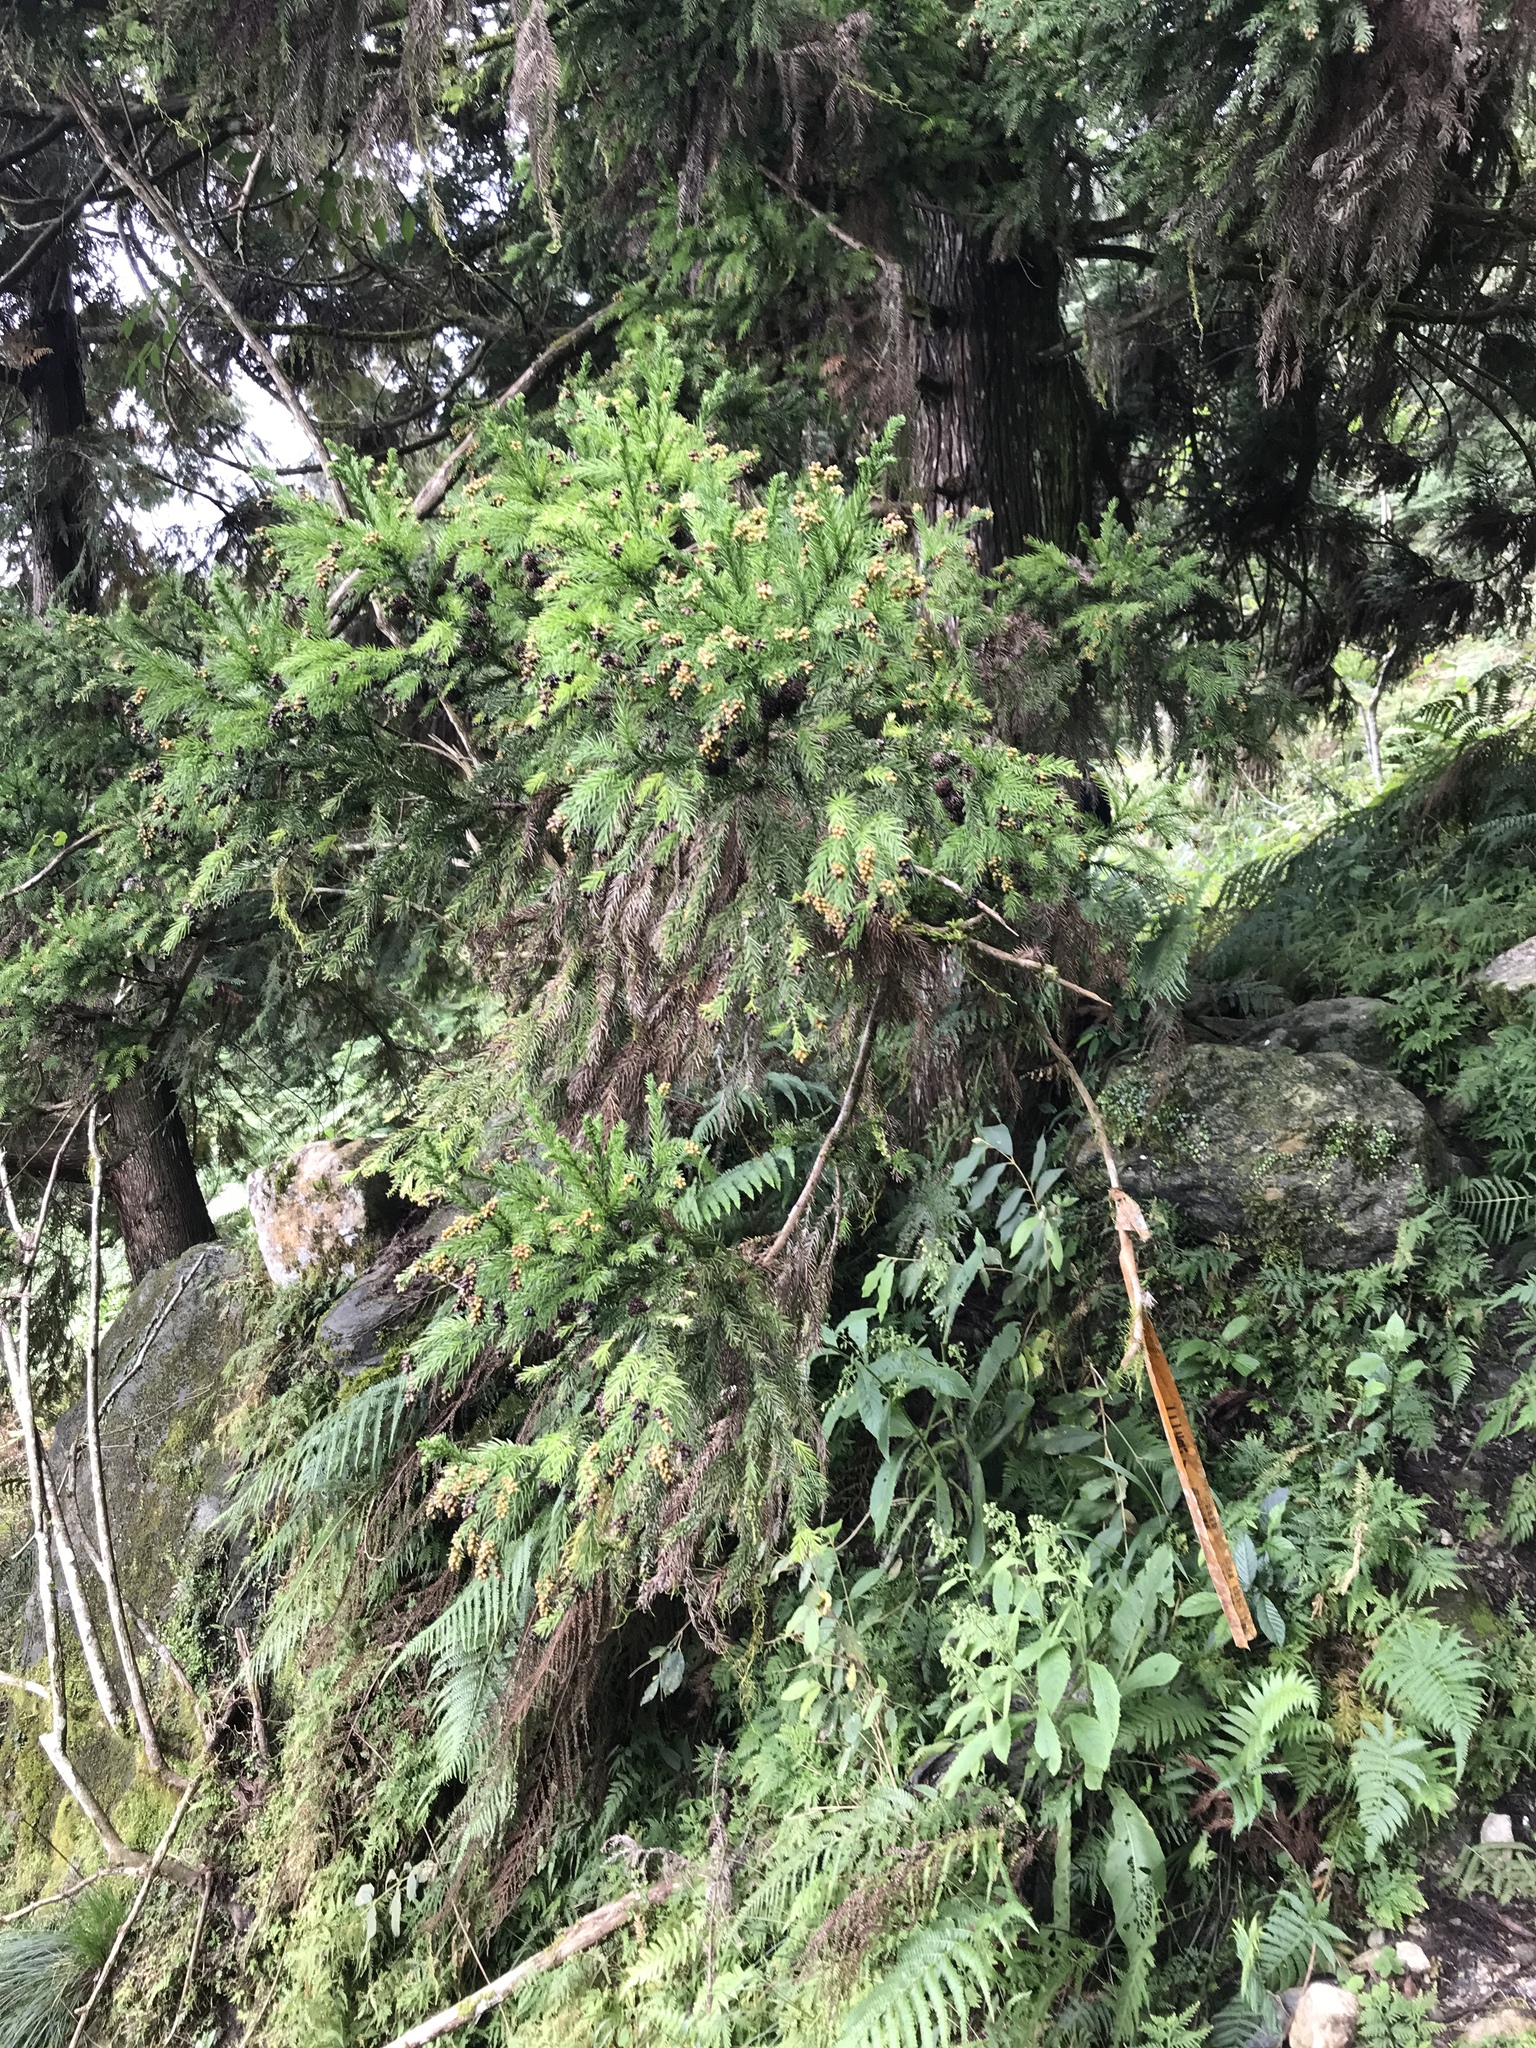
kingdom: Plantae
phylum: Tracheophyta
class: Pinopsida
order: Pinales
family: Cupressaceae
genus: Cryptomeria
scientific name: Cryptomeria japonica
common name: Japanese cedar
